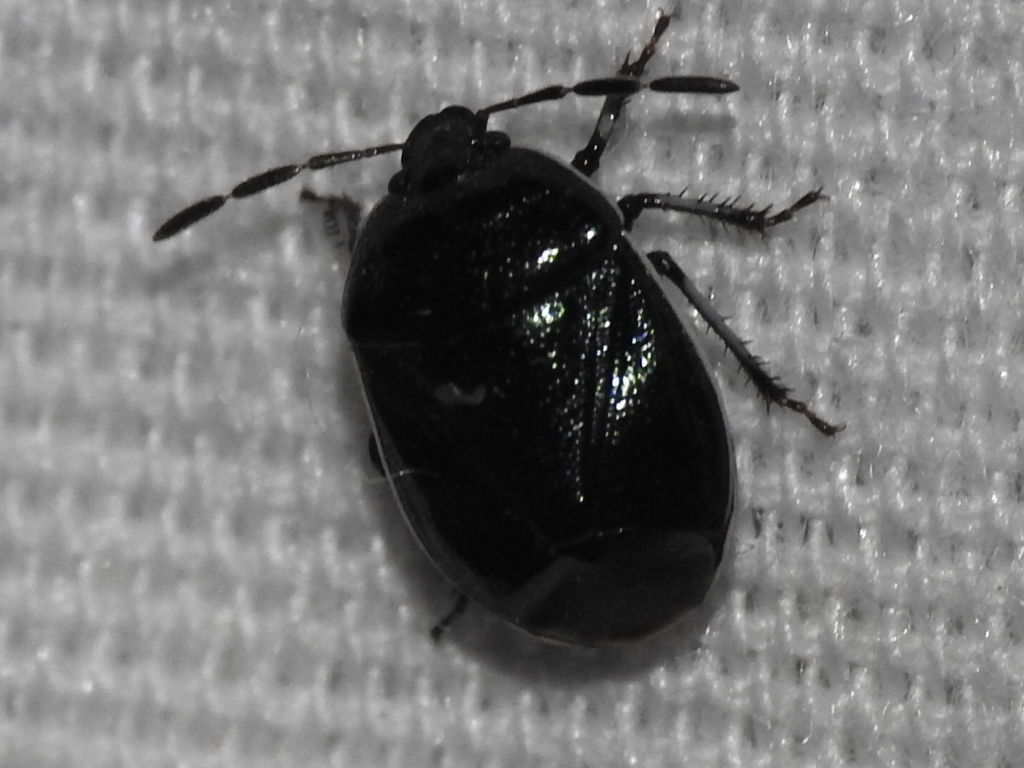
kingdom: Animalia
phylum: Arthropoda
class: Insecta
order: Hemiptera
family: Cydnidae
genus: Sehirus
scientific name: Sehirus cinctus
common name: White-margined burrower bug
